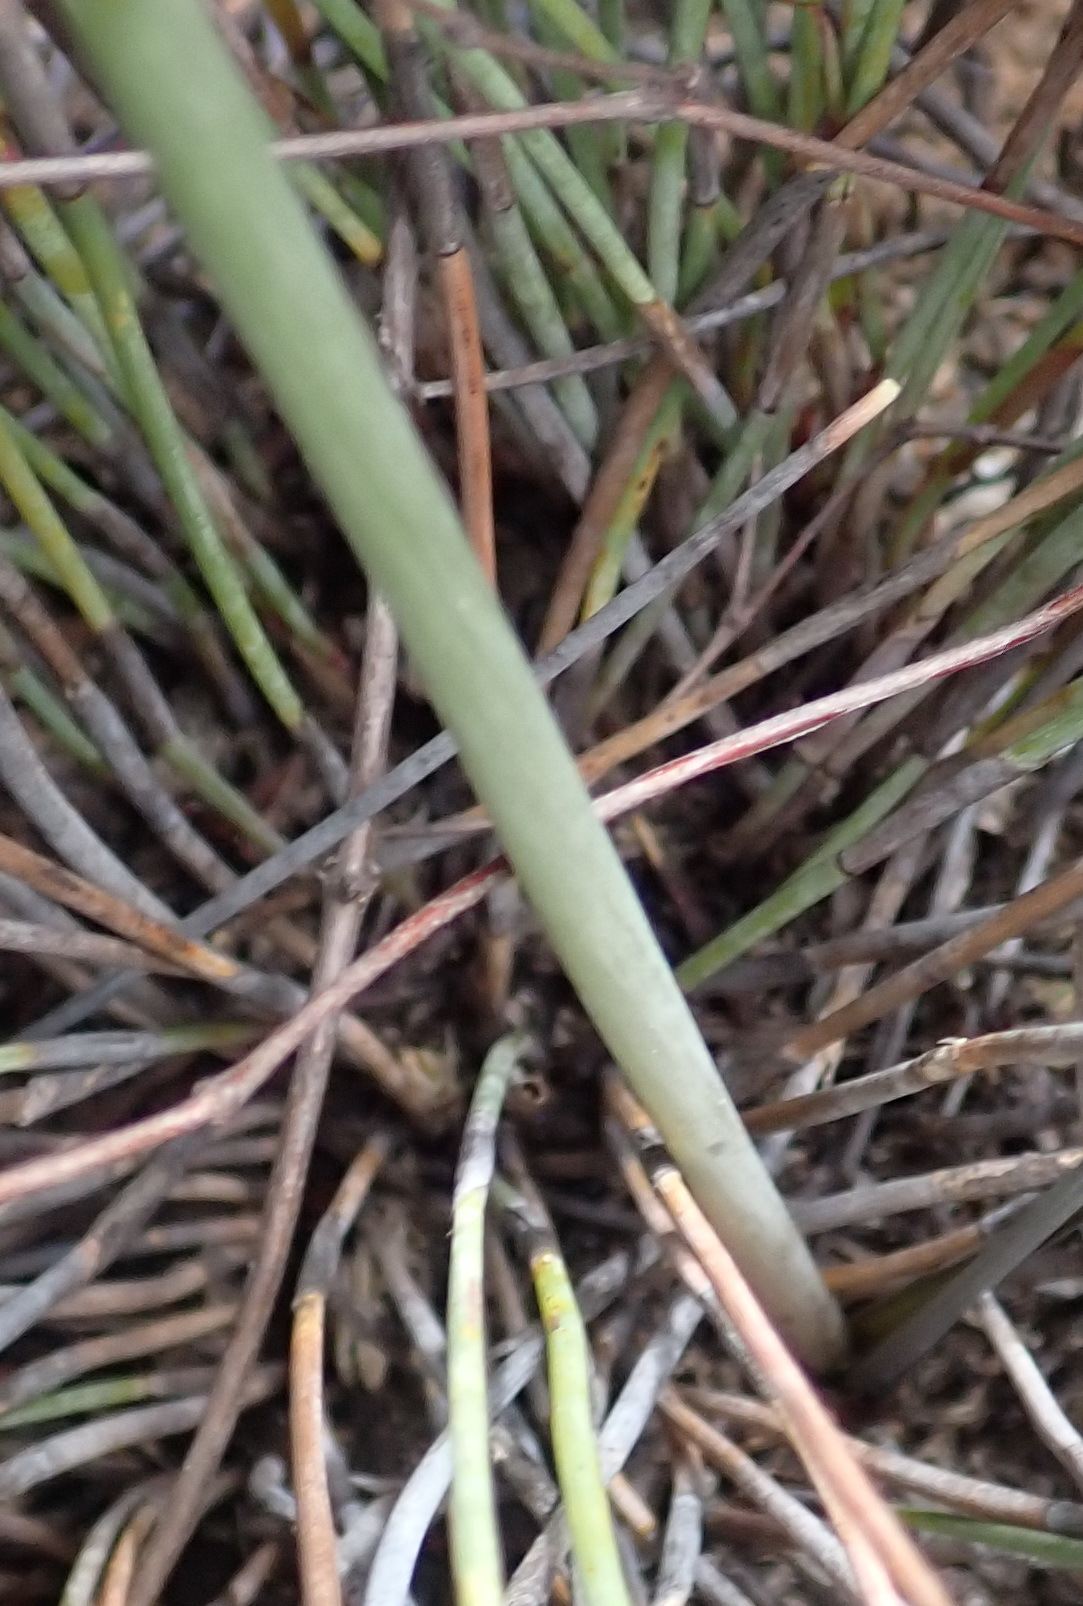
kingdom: Plantae
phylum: Tracheophyta
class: Liliopsida
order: Asparagales
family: Asparagaceae
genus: Albuca
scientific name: Albuca longipes
